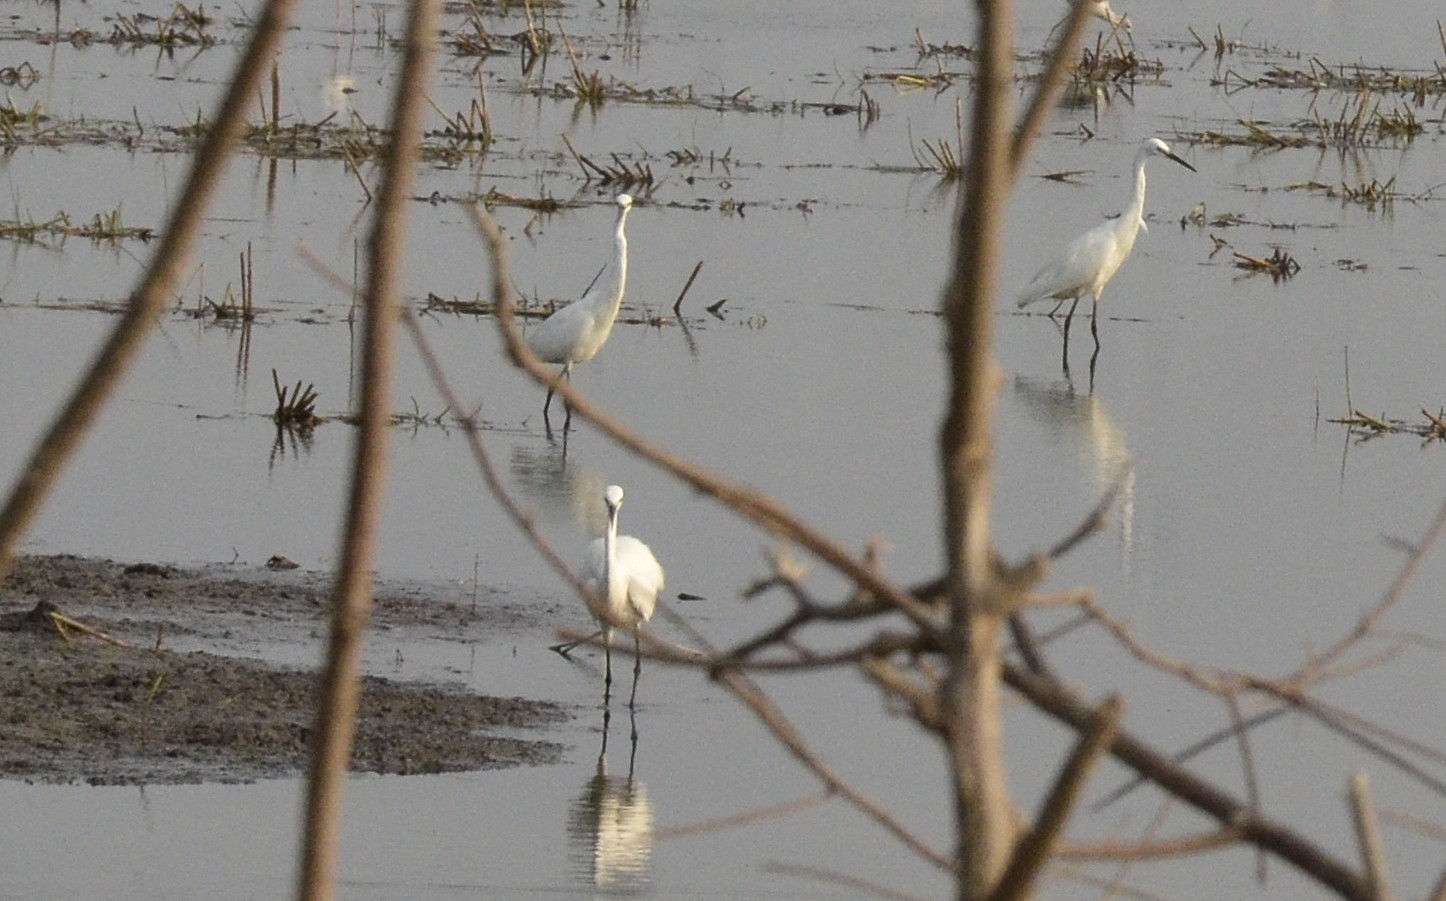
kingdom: Animalia
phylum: Chordata
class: Aves
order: Pelecaniformes
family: Ardeidae
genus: Egretta
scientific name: Egretta garzetta
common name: Little egret
